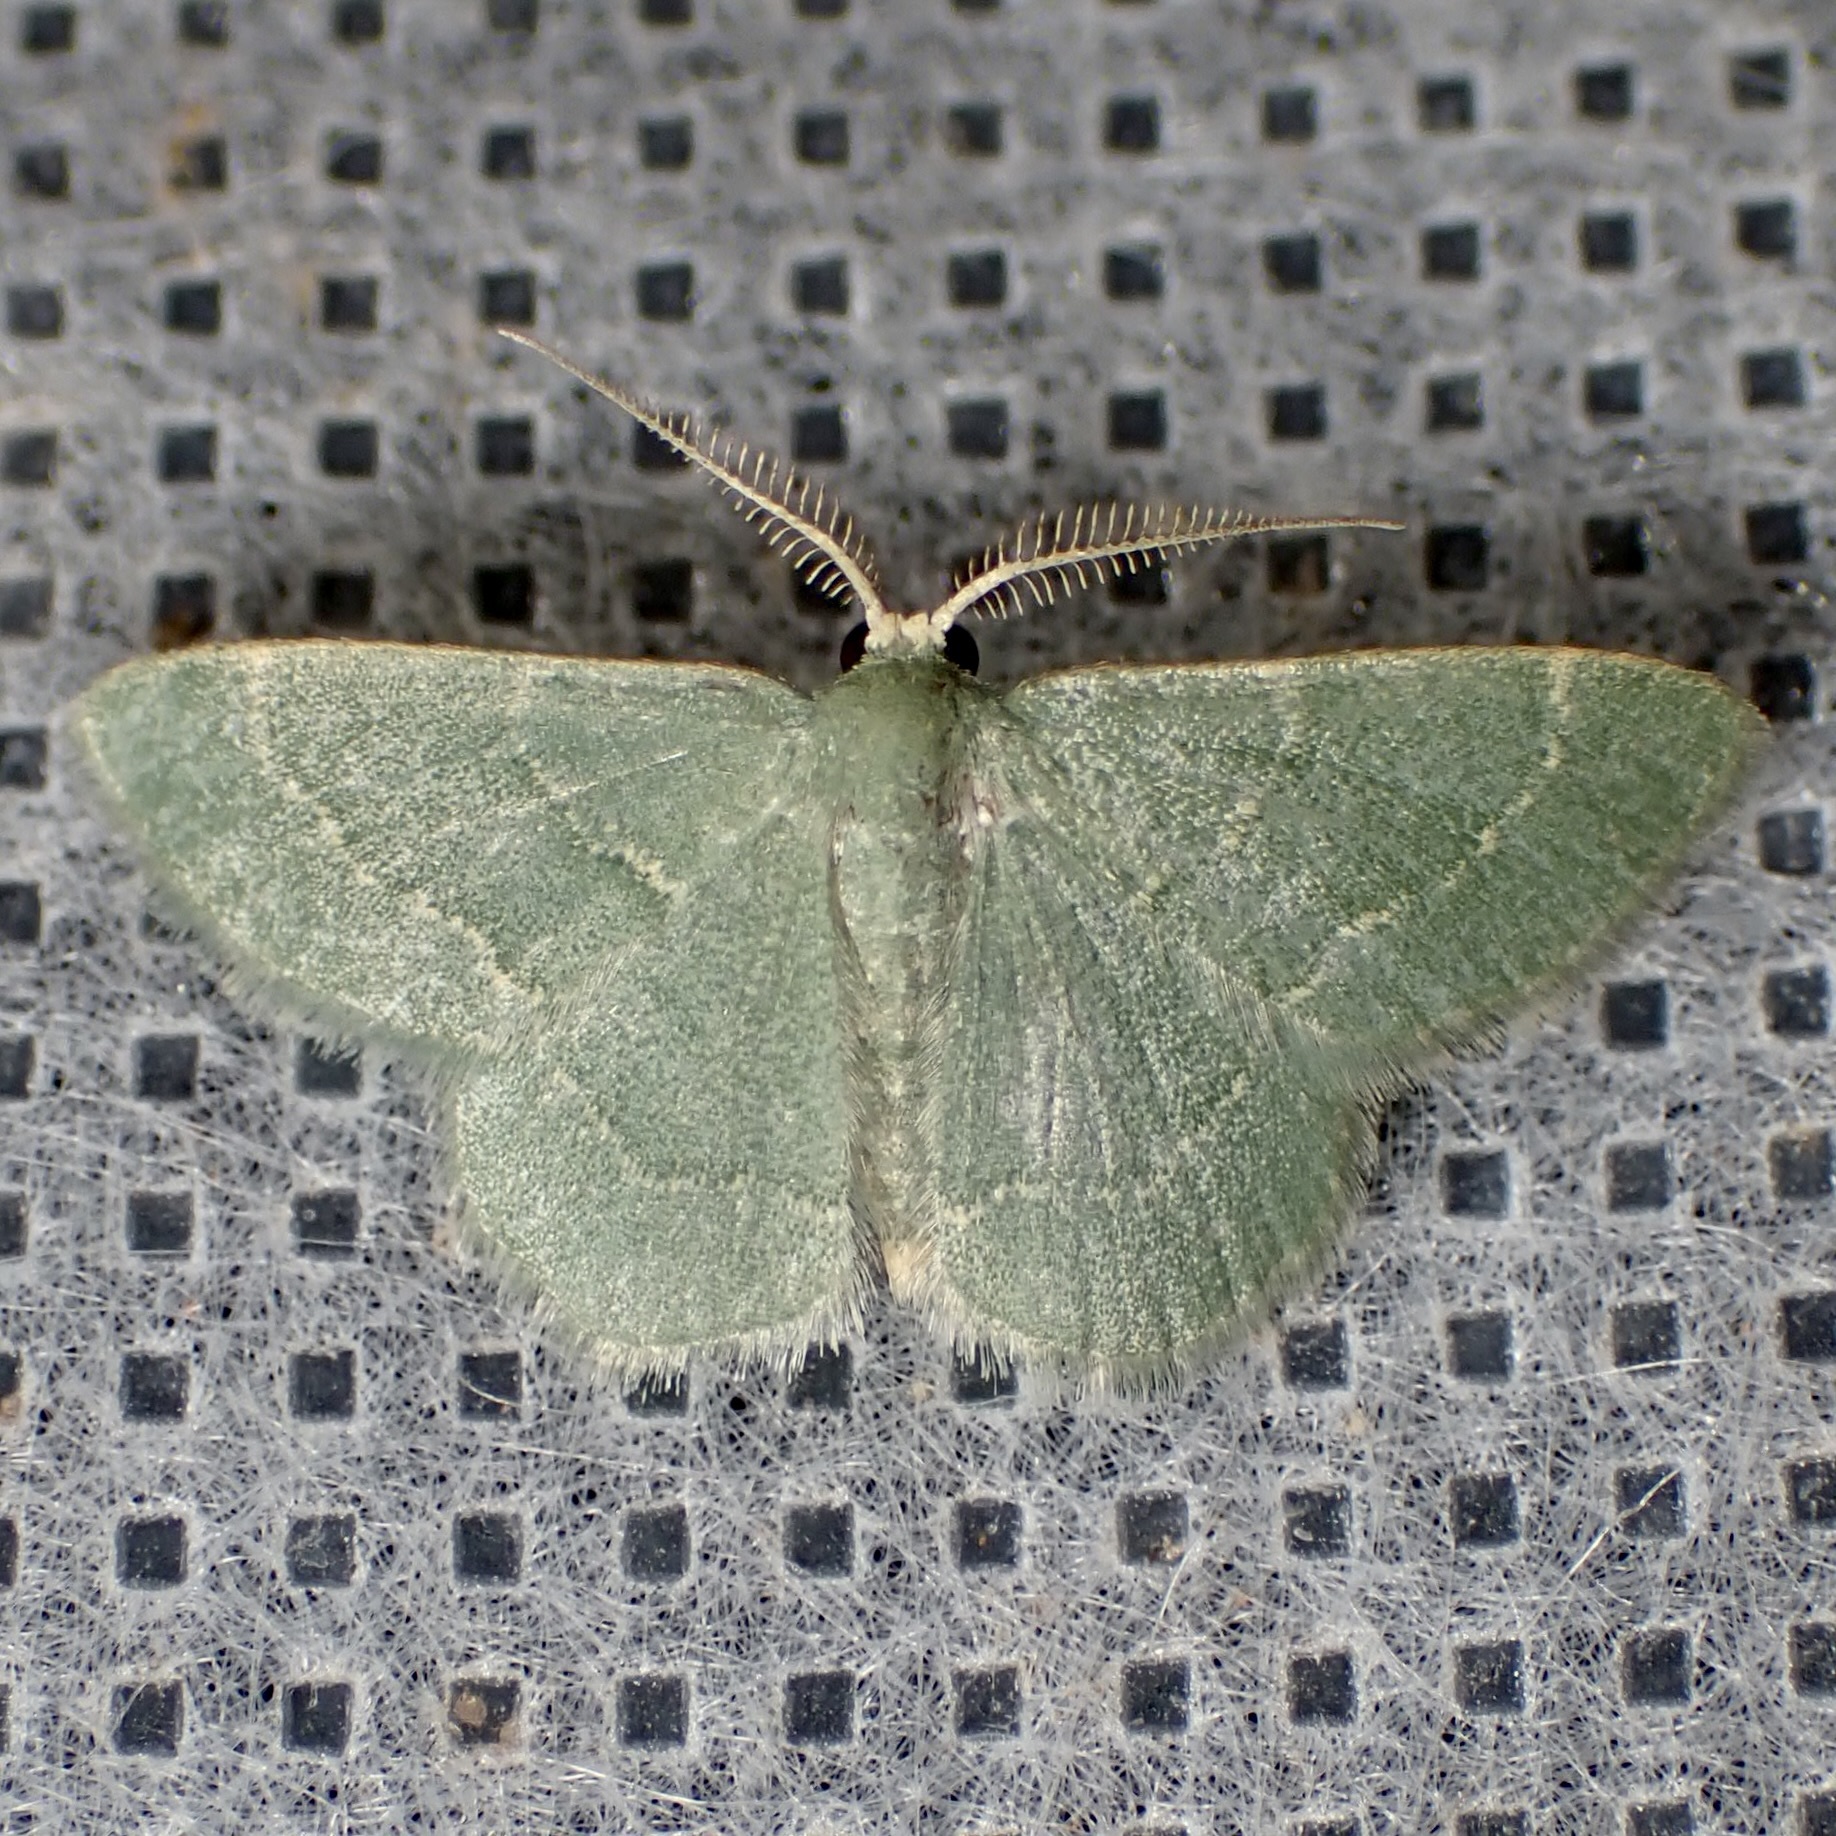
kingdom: Animalia
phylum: Arthropoda
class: Insecta
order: Lepidoptera
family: Geometridae
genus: Chlorochlamys
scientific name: Chlorochlamys phyllinaria
